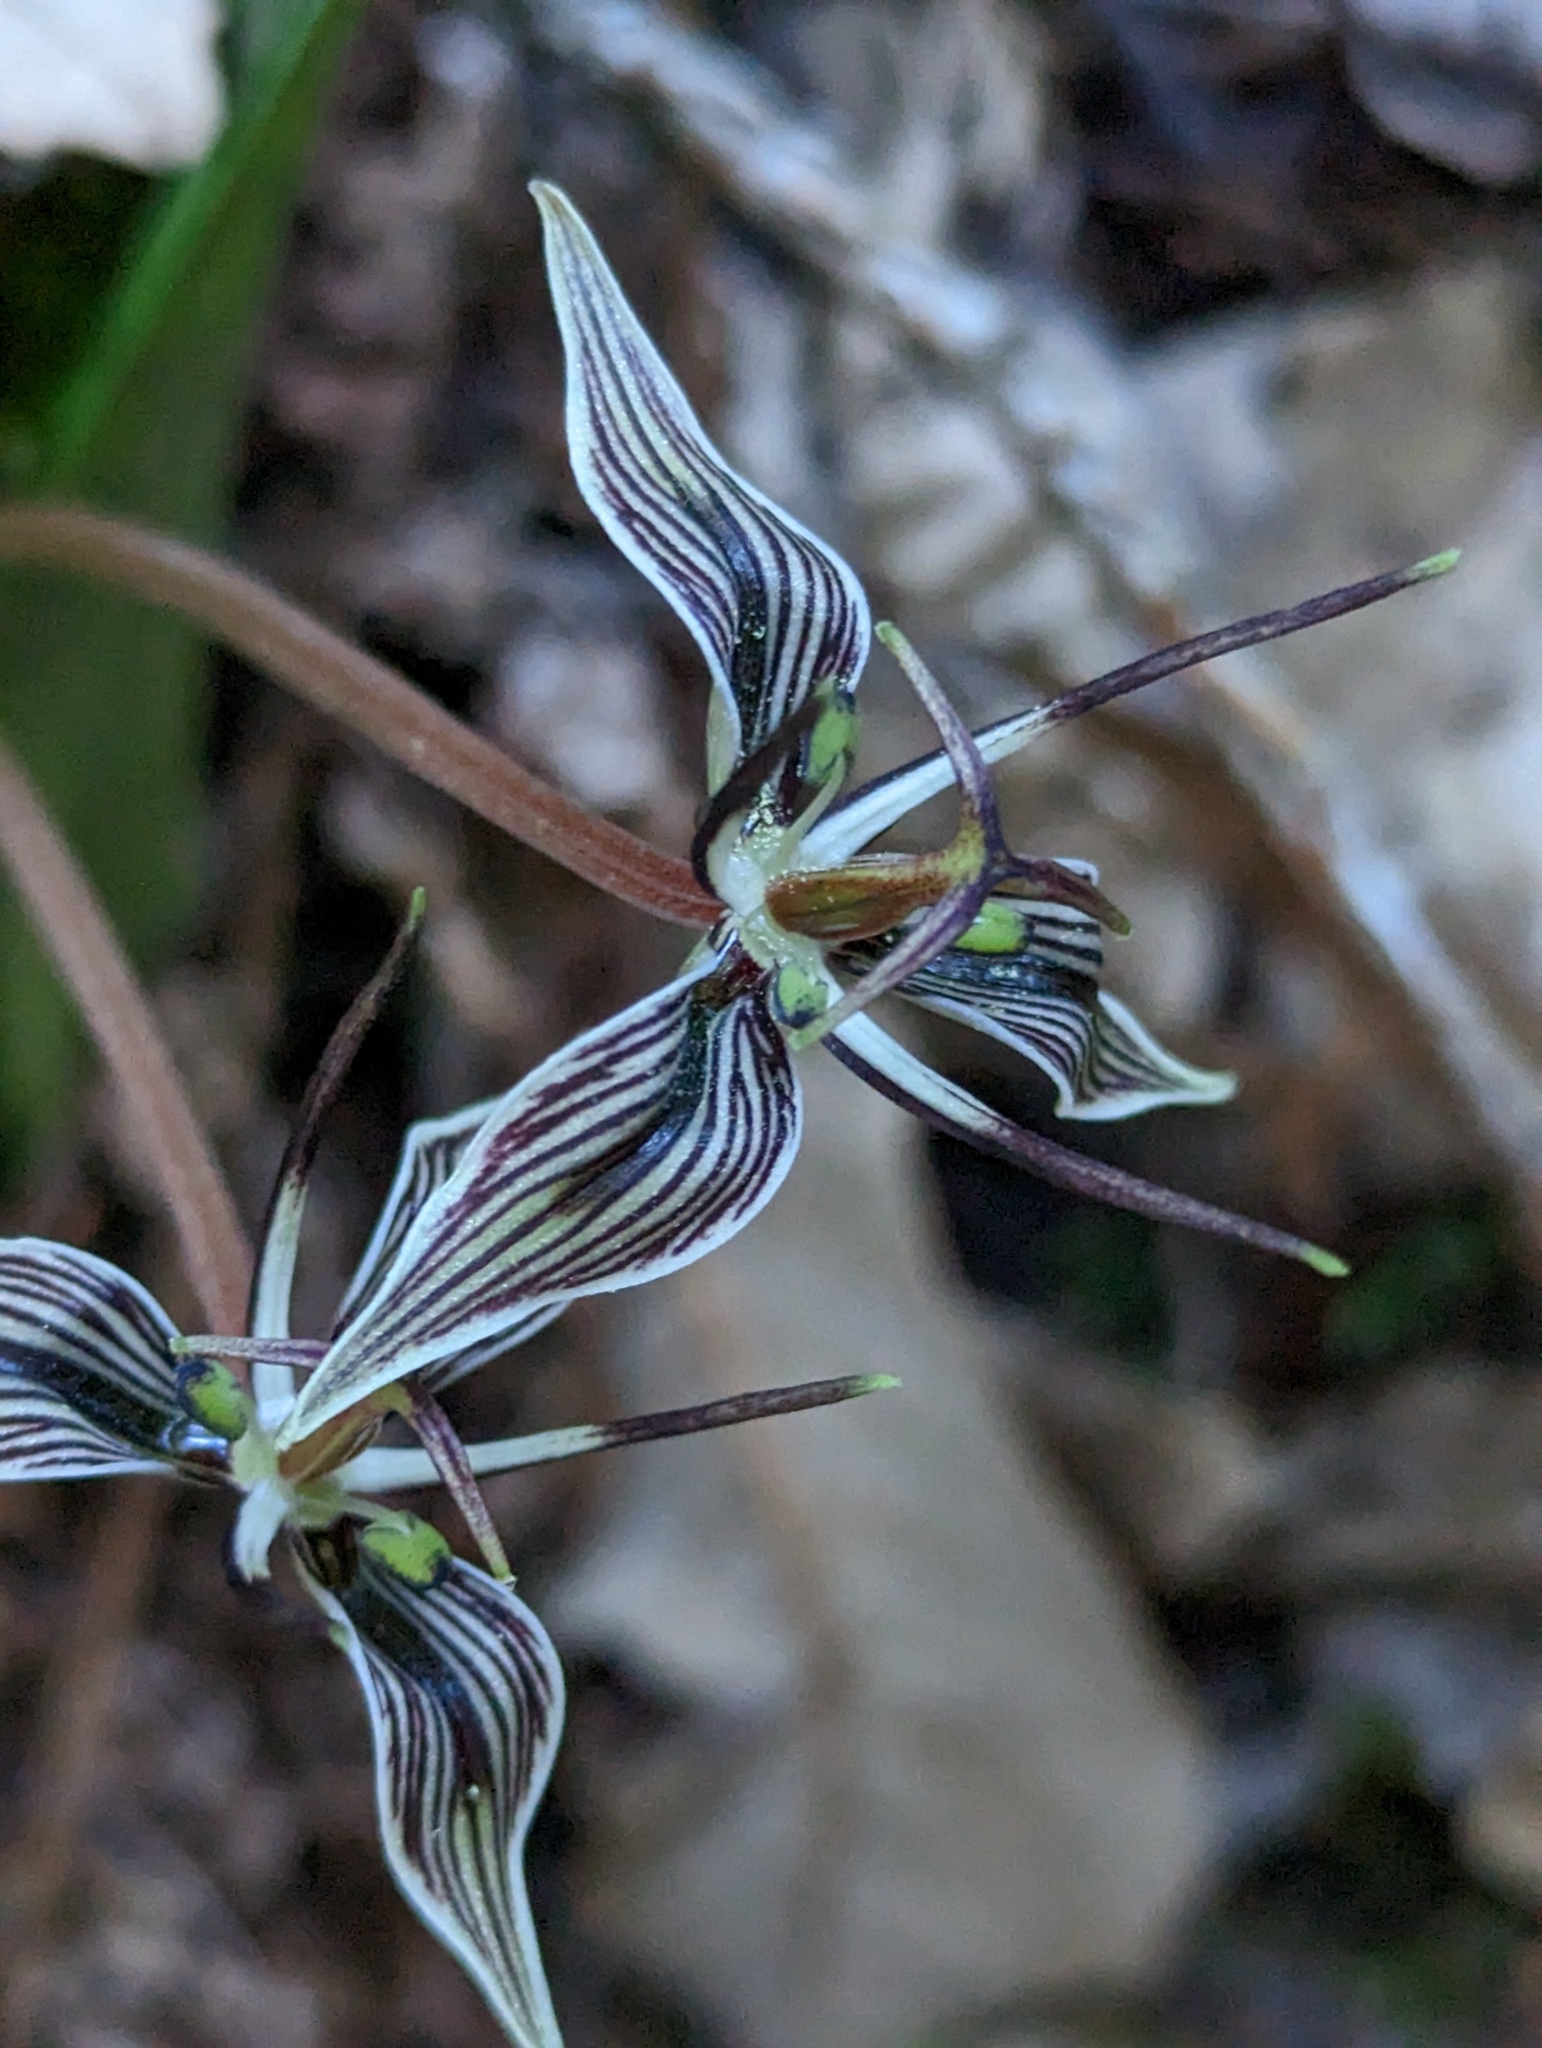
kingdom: Plantae
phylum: Tracheophyta
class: Liliopsida
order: Liliales
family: Liliaceae
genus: Scoliopus
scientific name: Scoliopus bigelovii
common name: Foetid adder's-tongue
